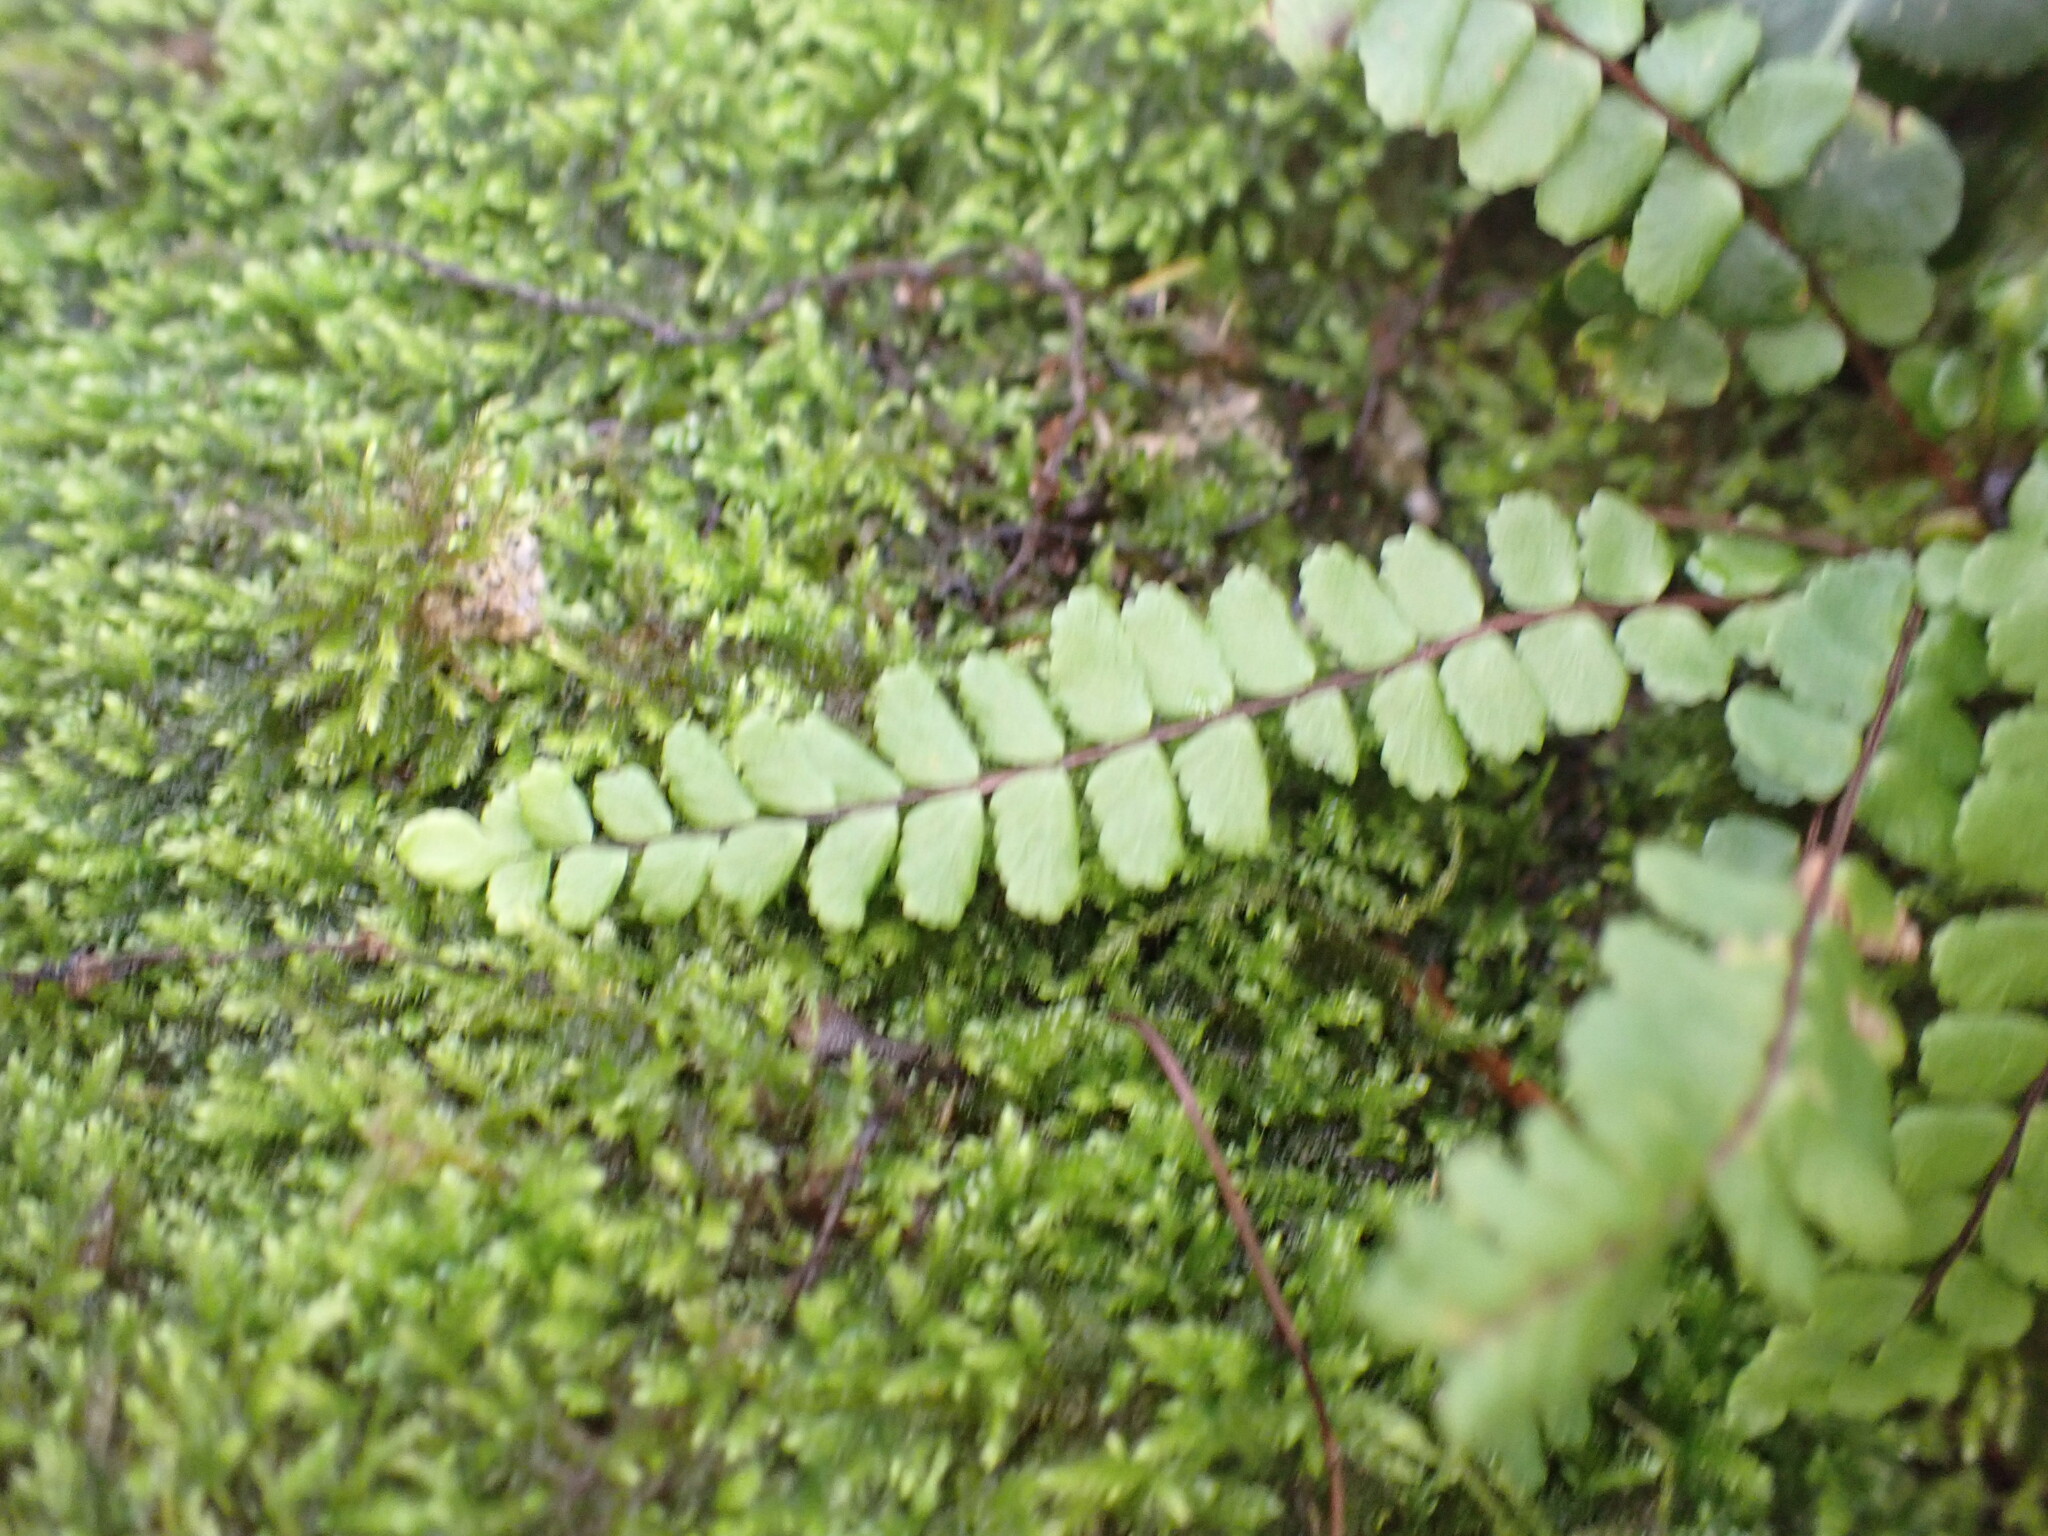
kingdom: Plantae
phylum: Tracheophyta
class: Polypodiopsida
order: Polypodiales
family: Aspleniaceae
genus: Asplenium
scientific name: Asplenium trichomanes
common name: Maidenhair spleenwort
